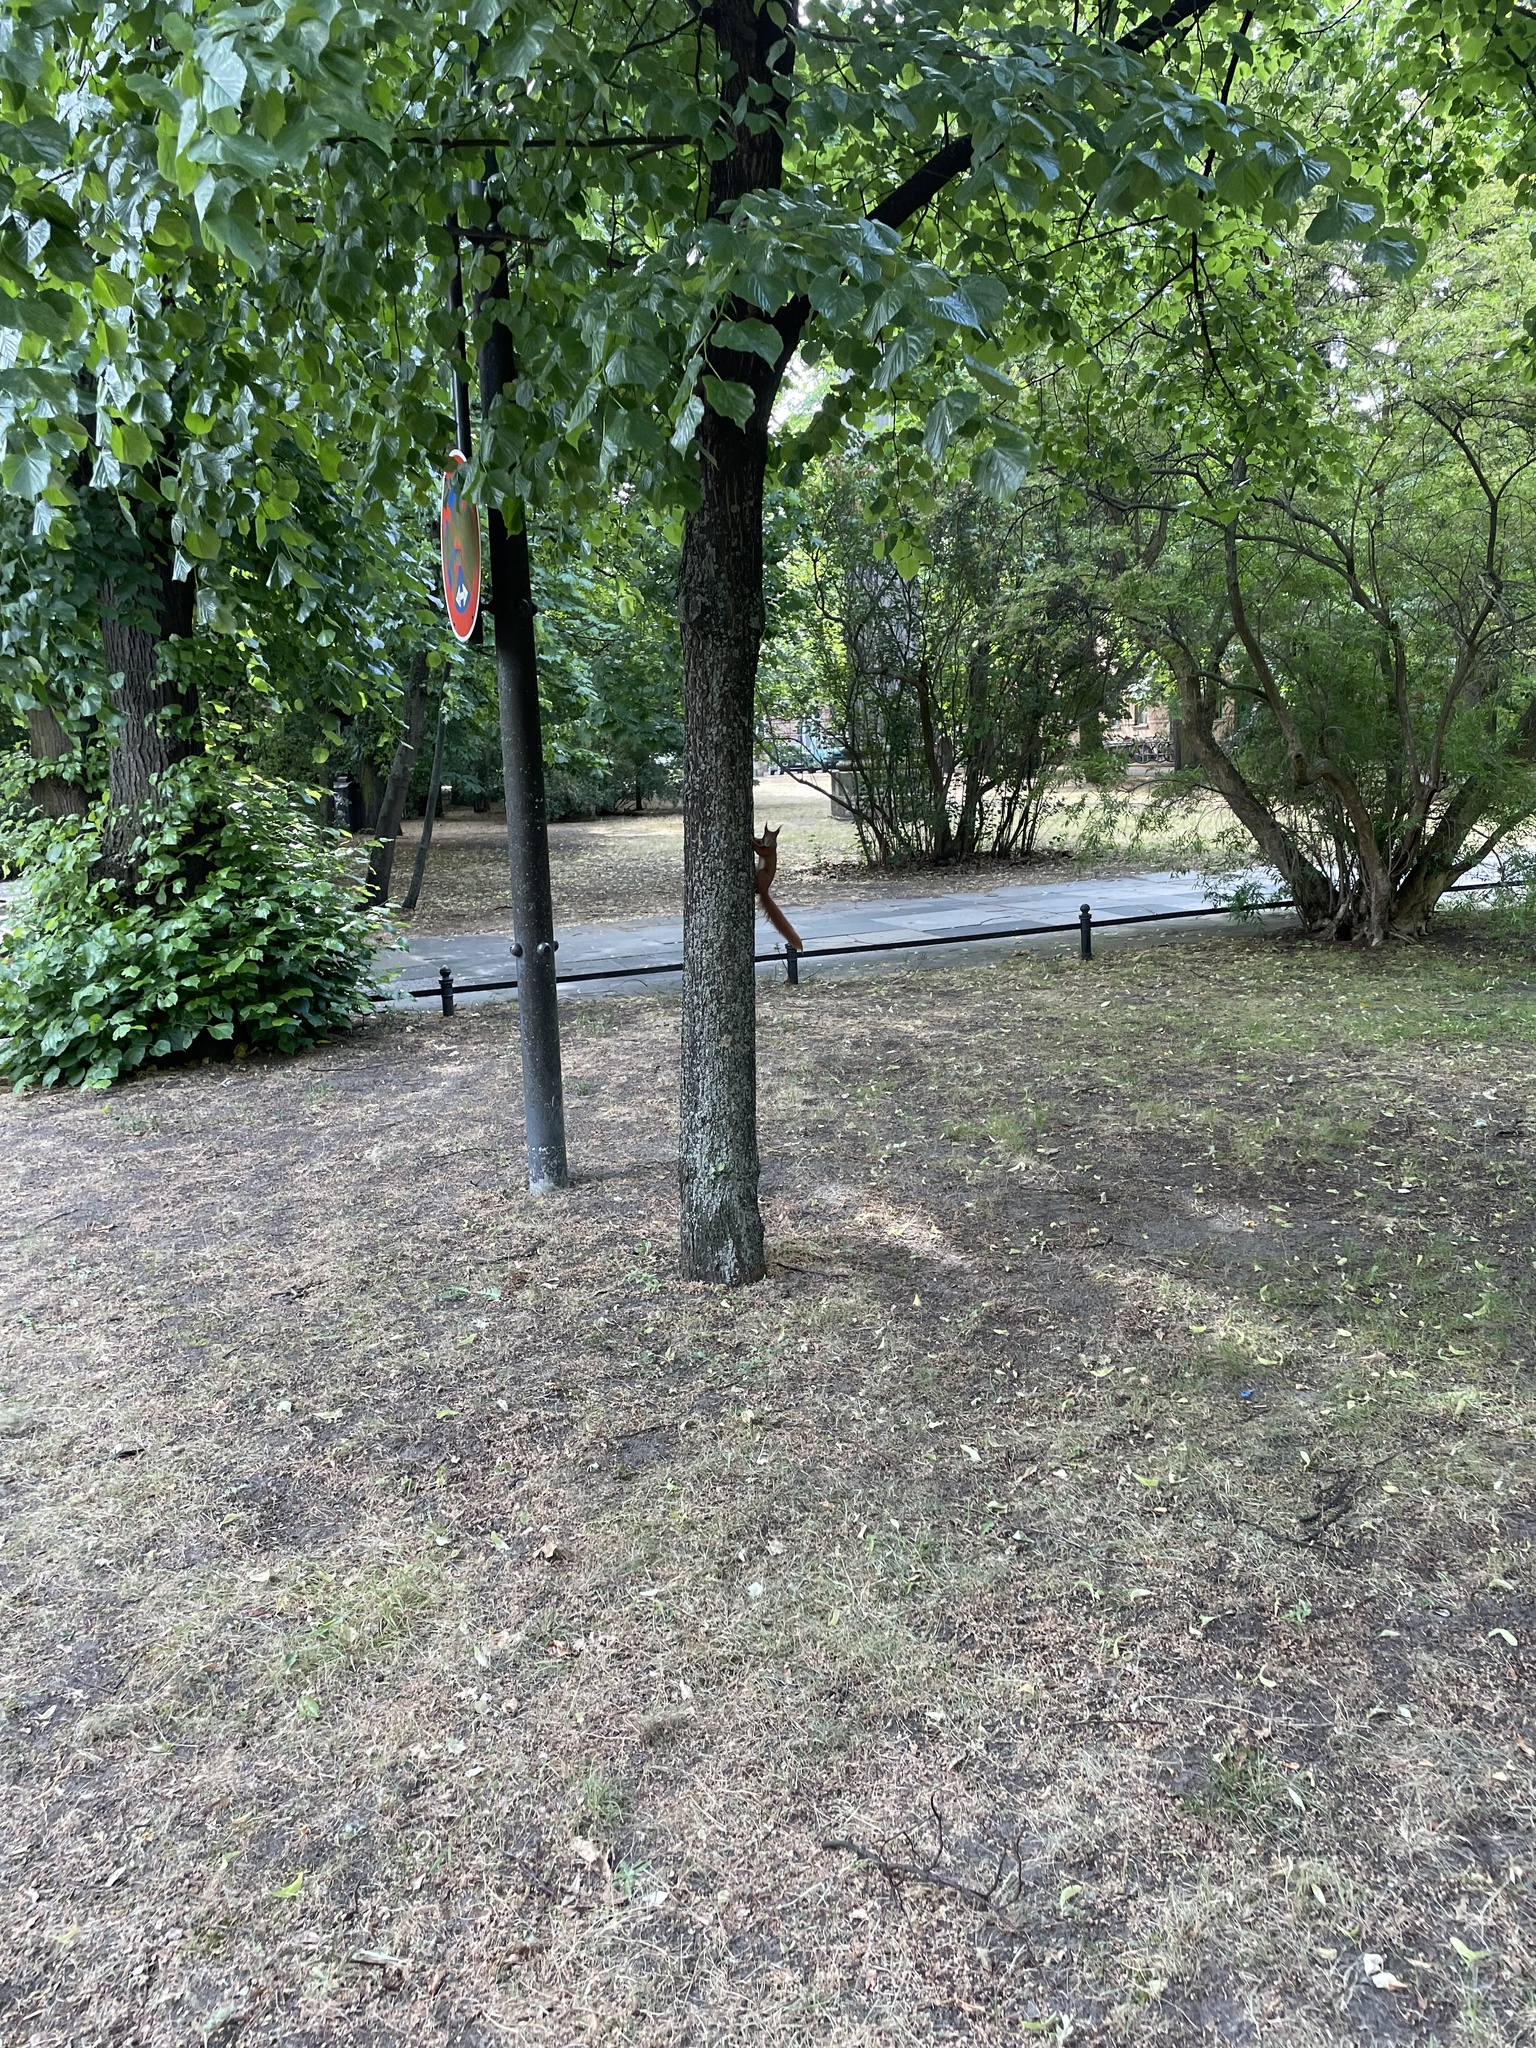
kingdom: Animalia
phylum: Chordata
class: Mammalia
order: Rodentia
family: Sciuridae
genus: Sciurus
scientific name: Sciurus vulgaris
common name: Eurasian red squirrel
